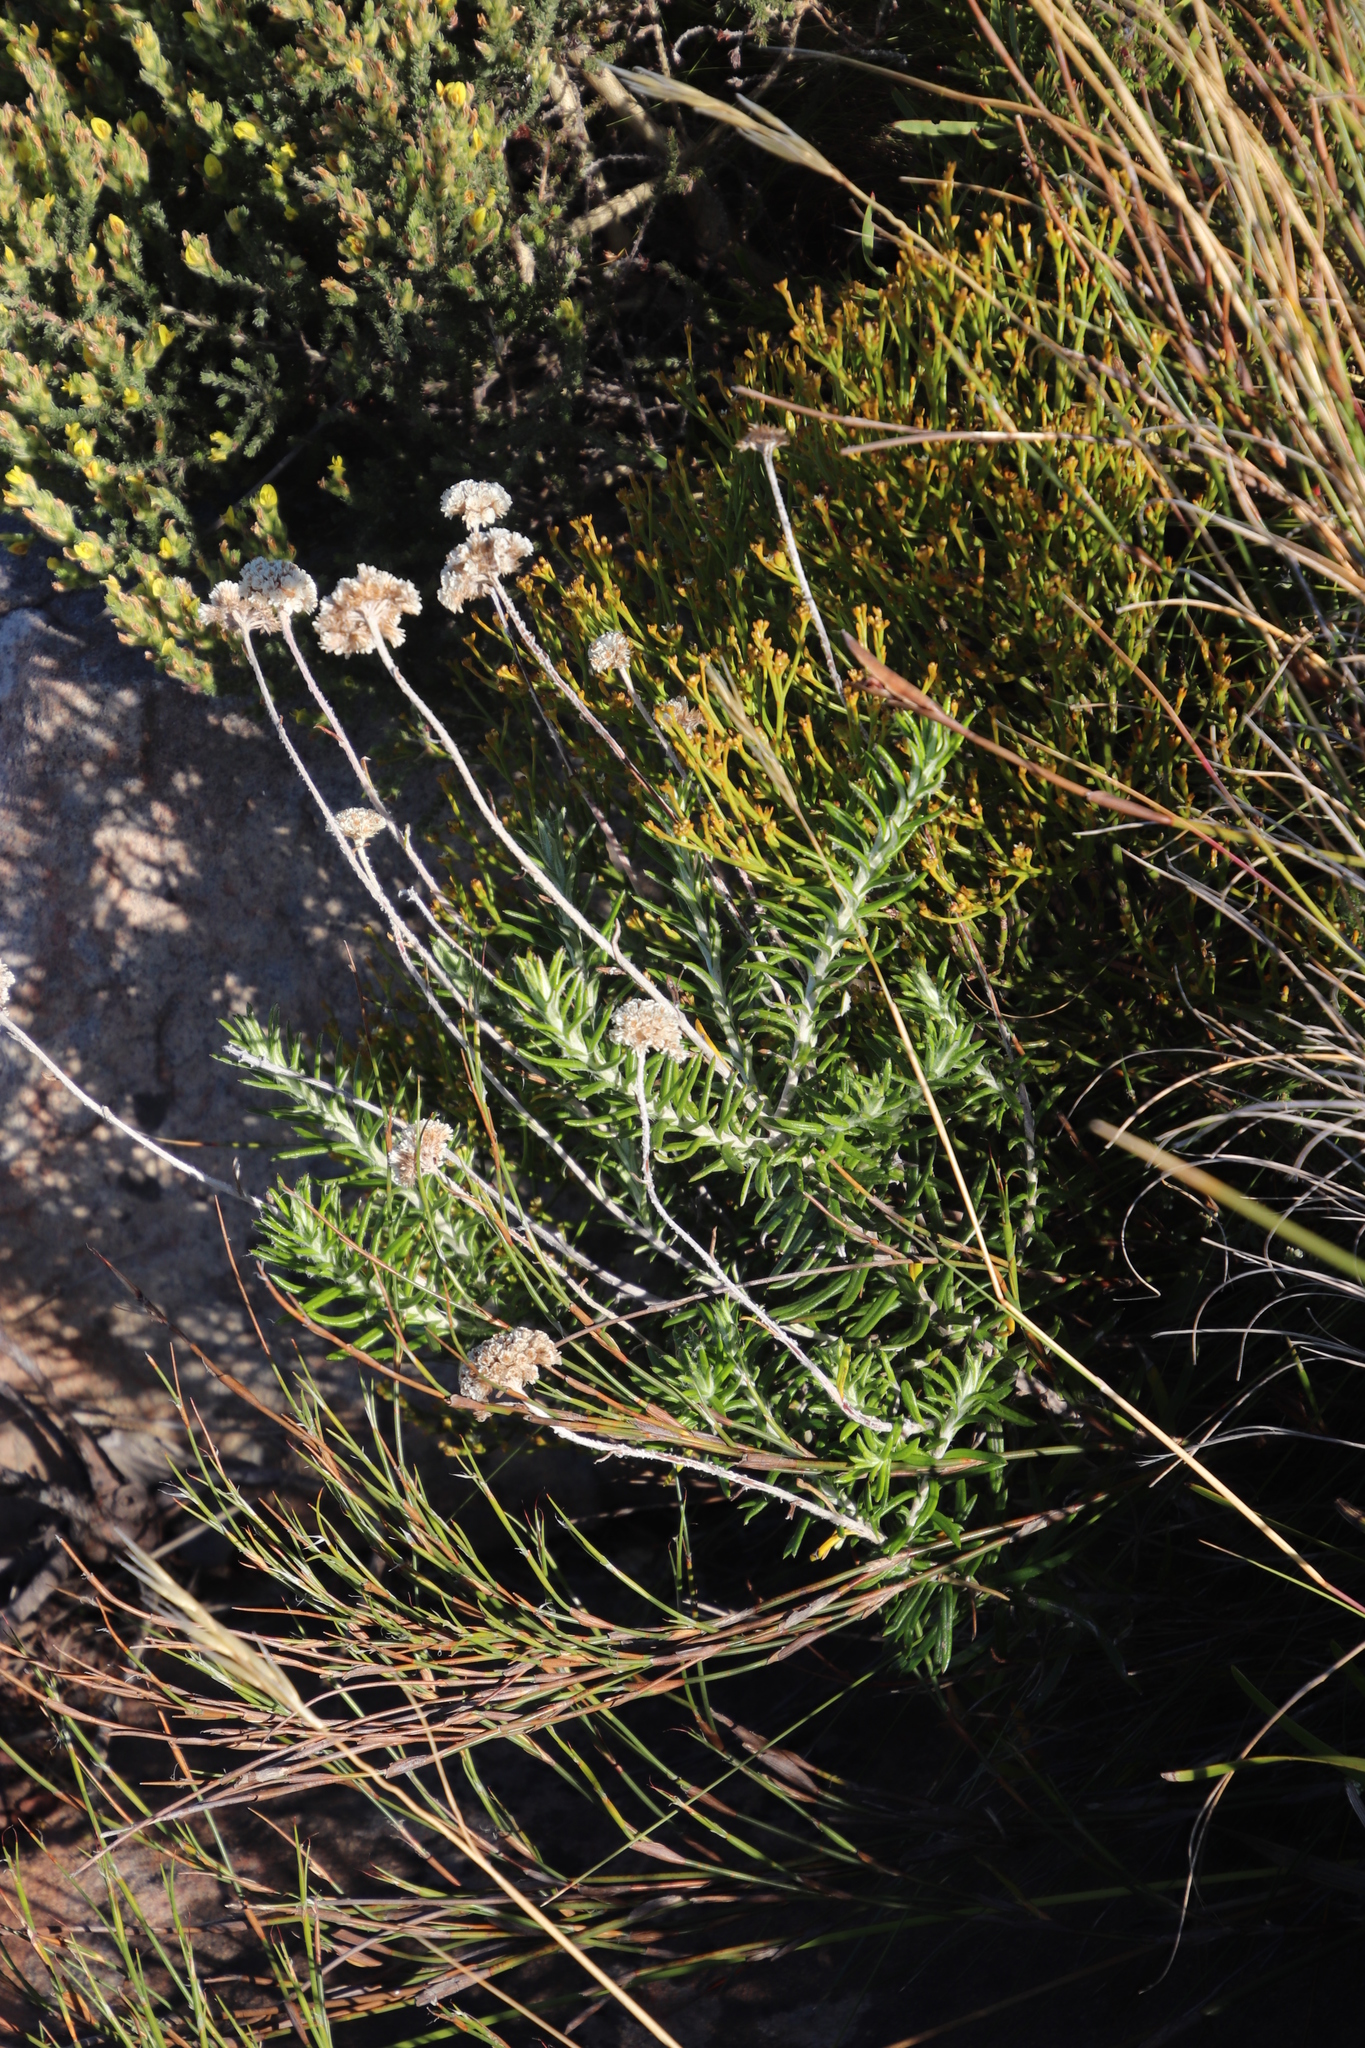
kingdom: Plantae
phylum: Tracheophyta
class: Magnoliopsida
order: Asterales
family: Asteraceae
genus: Anaxeton
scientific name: Anaxeton laeve
